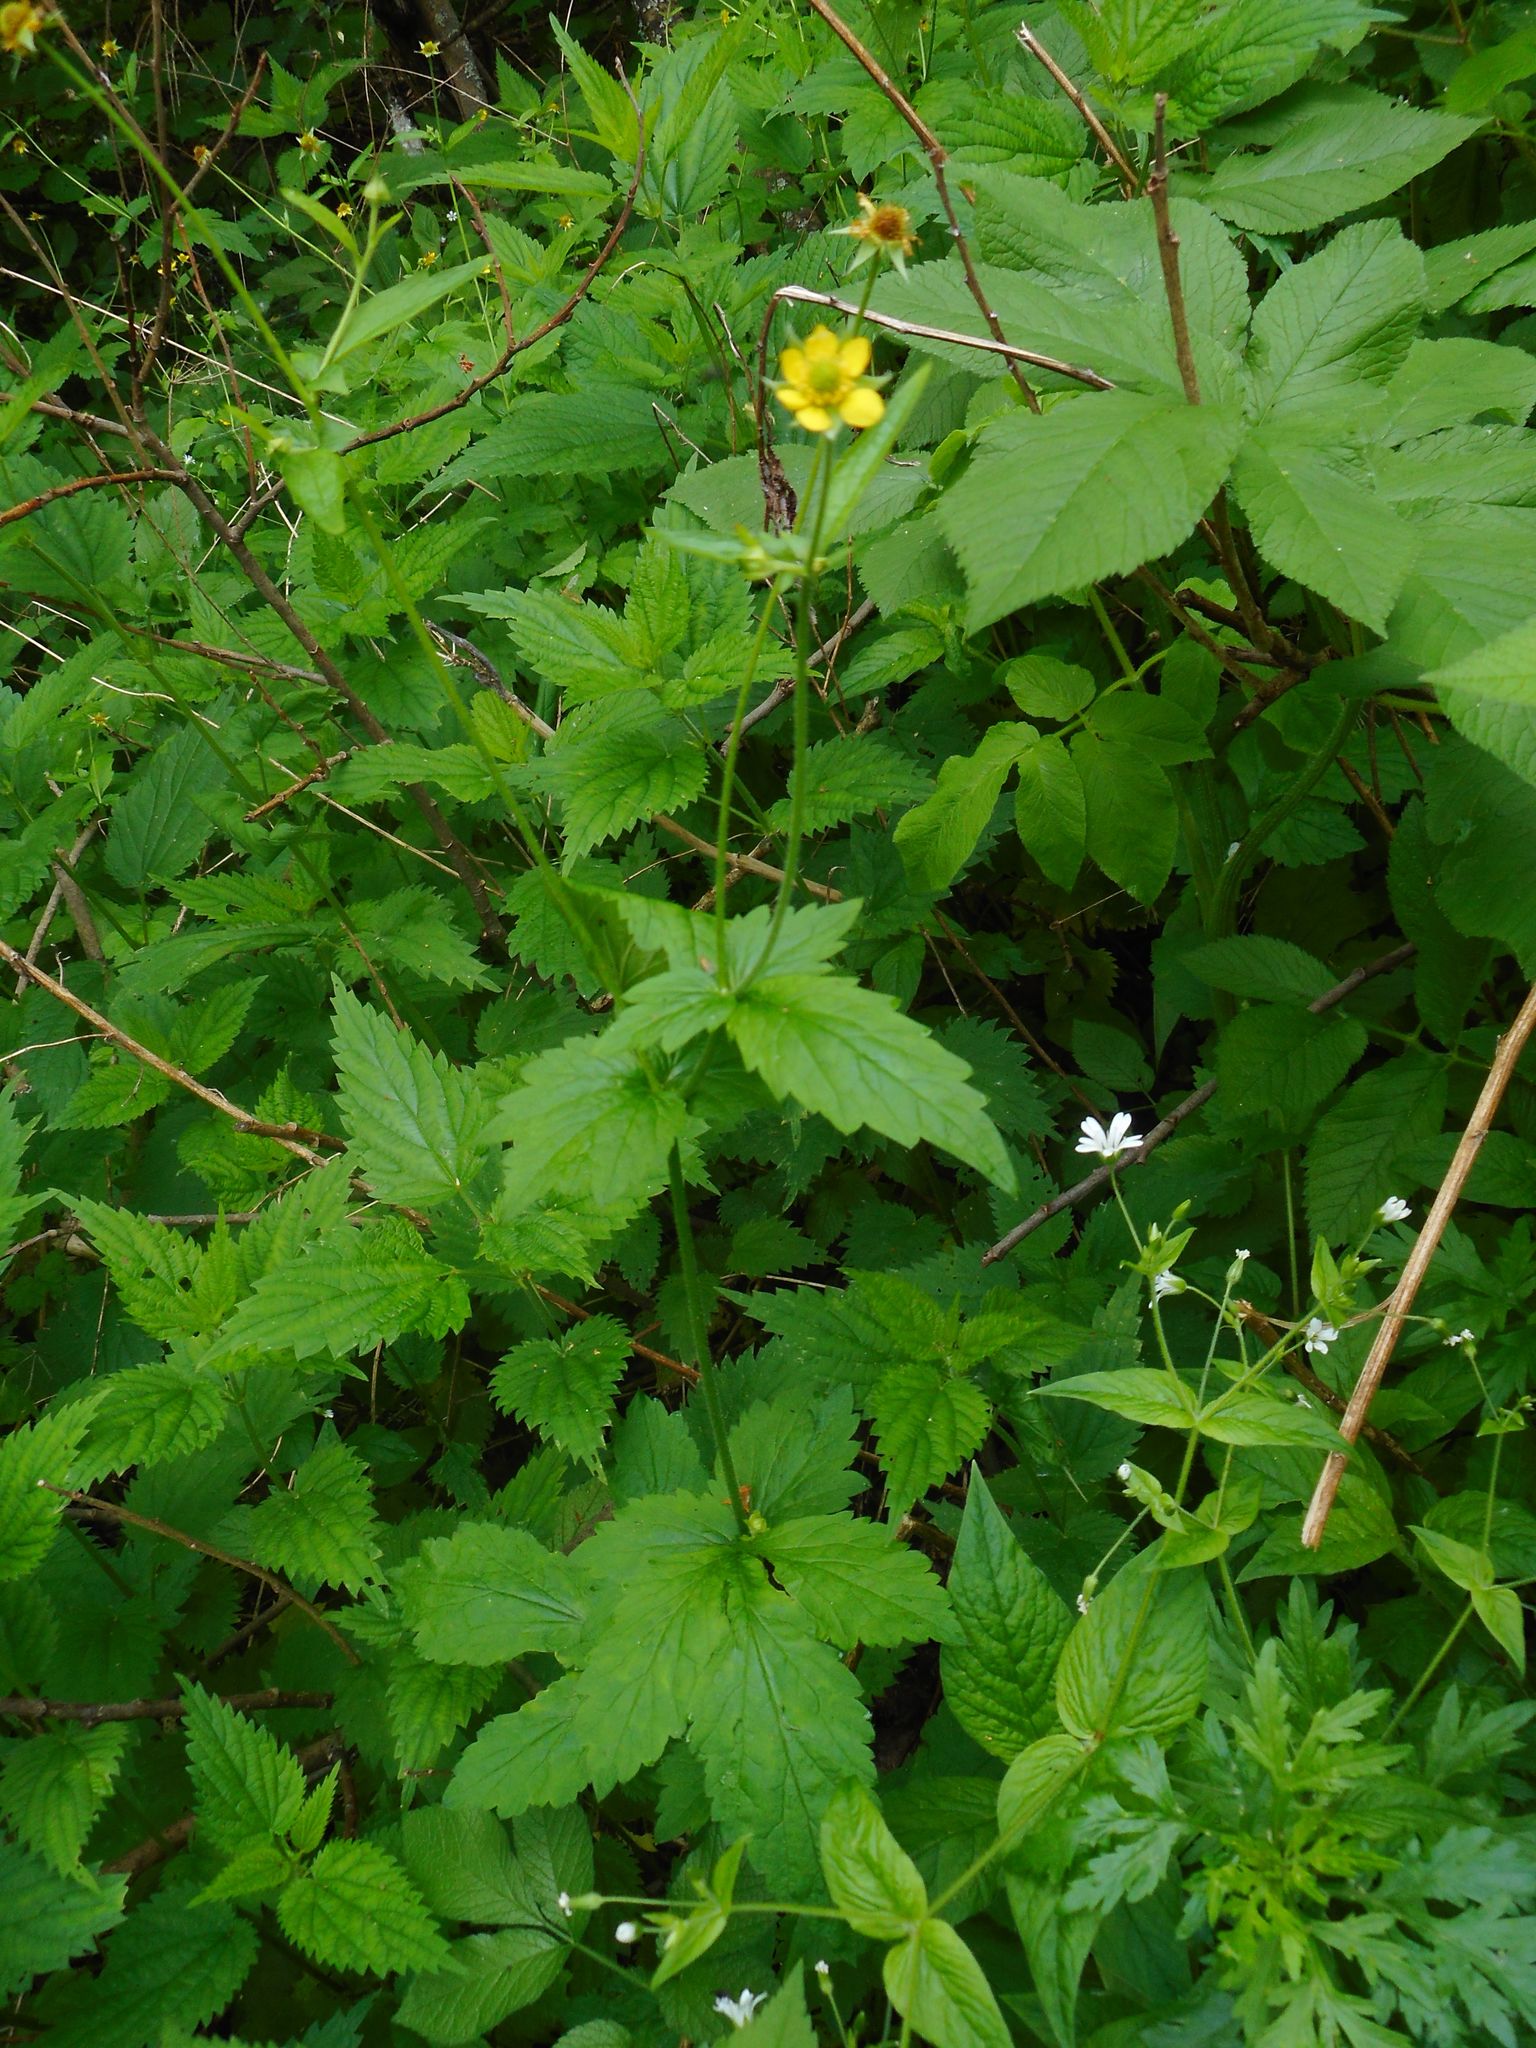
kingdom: Plantae
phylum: Tracheophyta
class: Magnoliopsida
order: Rosales
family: Rosaceae
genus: Geum
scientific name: Geum urbanum
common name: Wood avens
